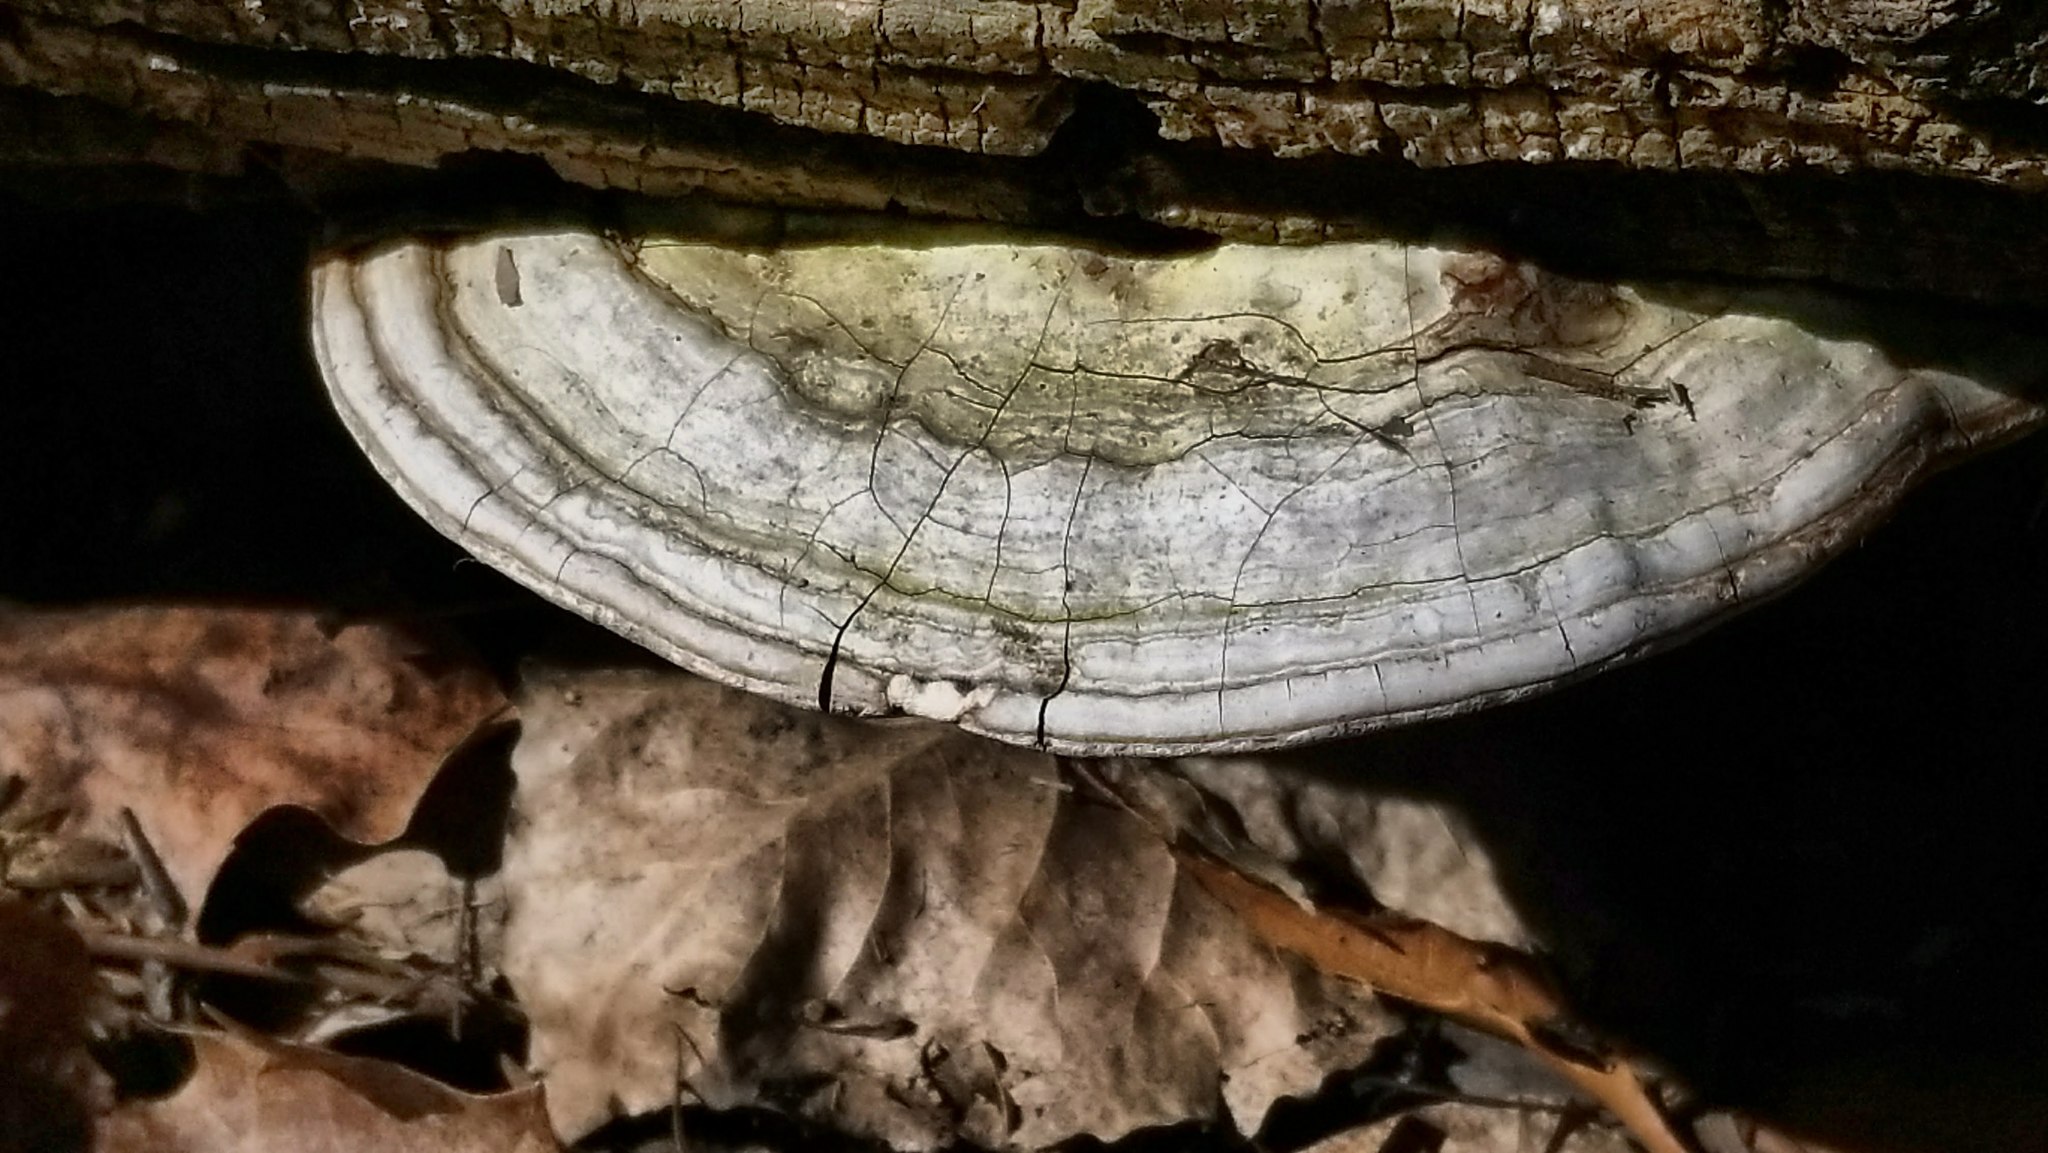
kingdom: Fungi
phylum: Basidiomycota
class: Agaricomycetes
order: Polyporales
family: Polyporaceae
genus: Ganoderma
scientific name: Ganoderma applanatum
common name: Artist's bracket
